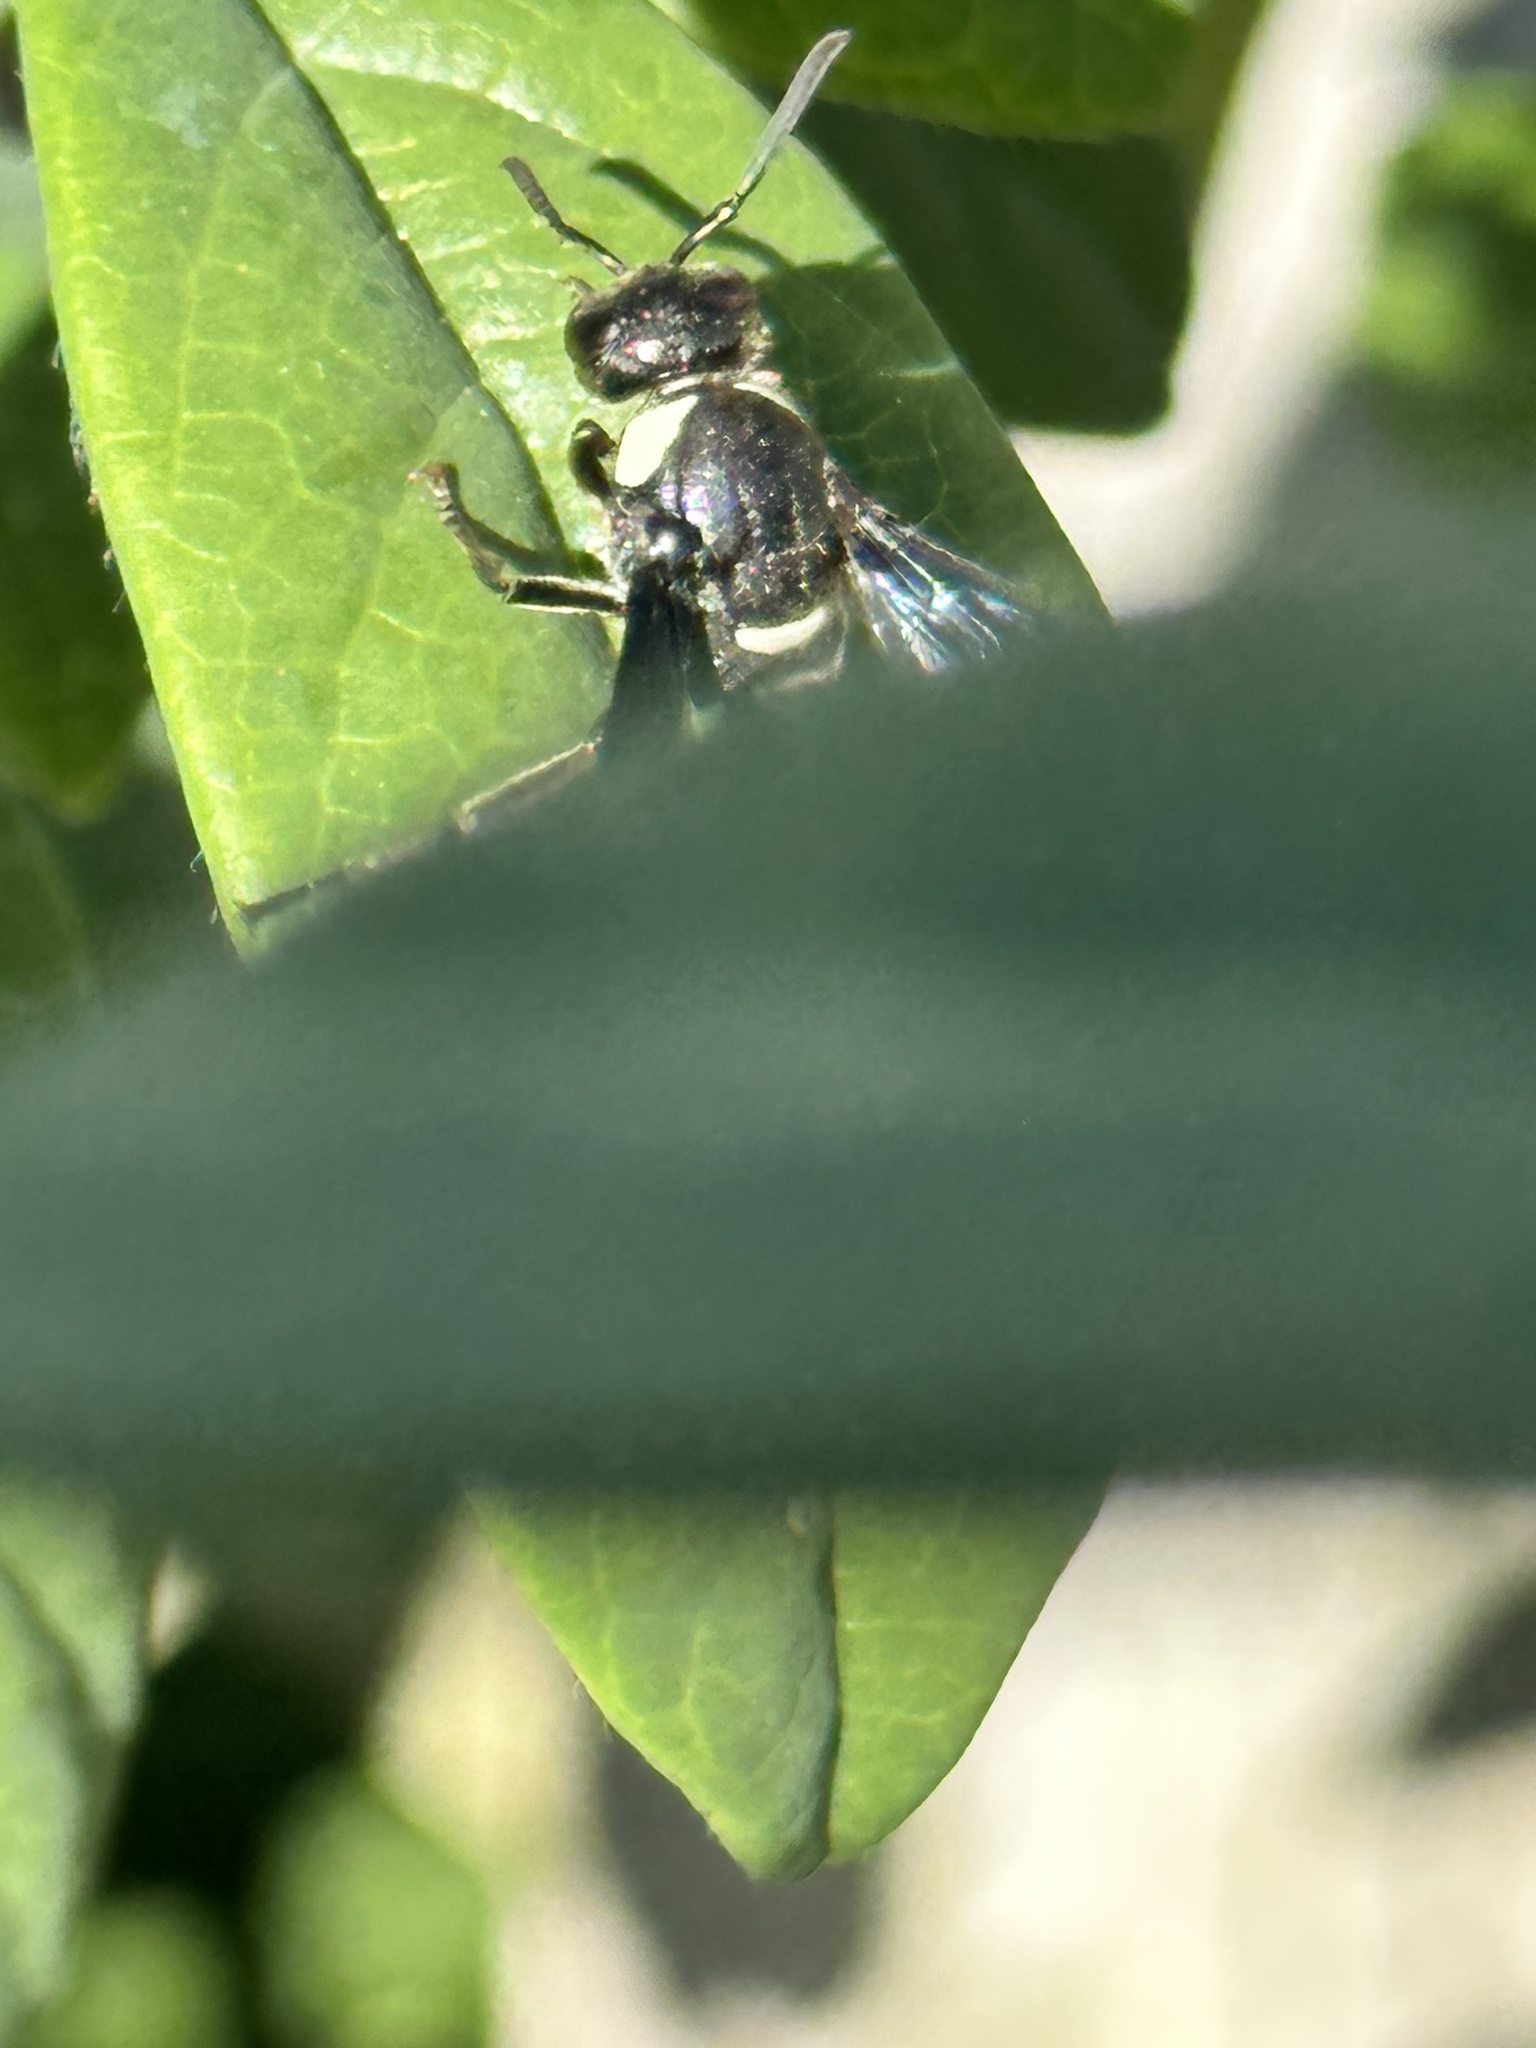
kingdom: Animalia
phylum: Arthropoda
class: Insecta
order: Hymenoptera
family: Eumenidae
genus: Monobia
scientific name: Monobia quadridens
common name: Four-toothed mason wasp
